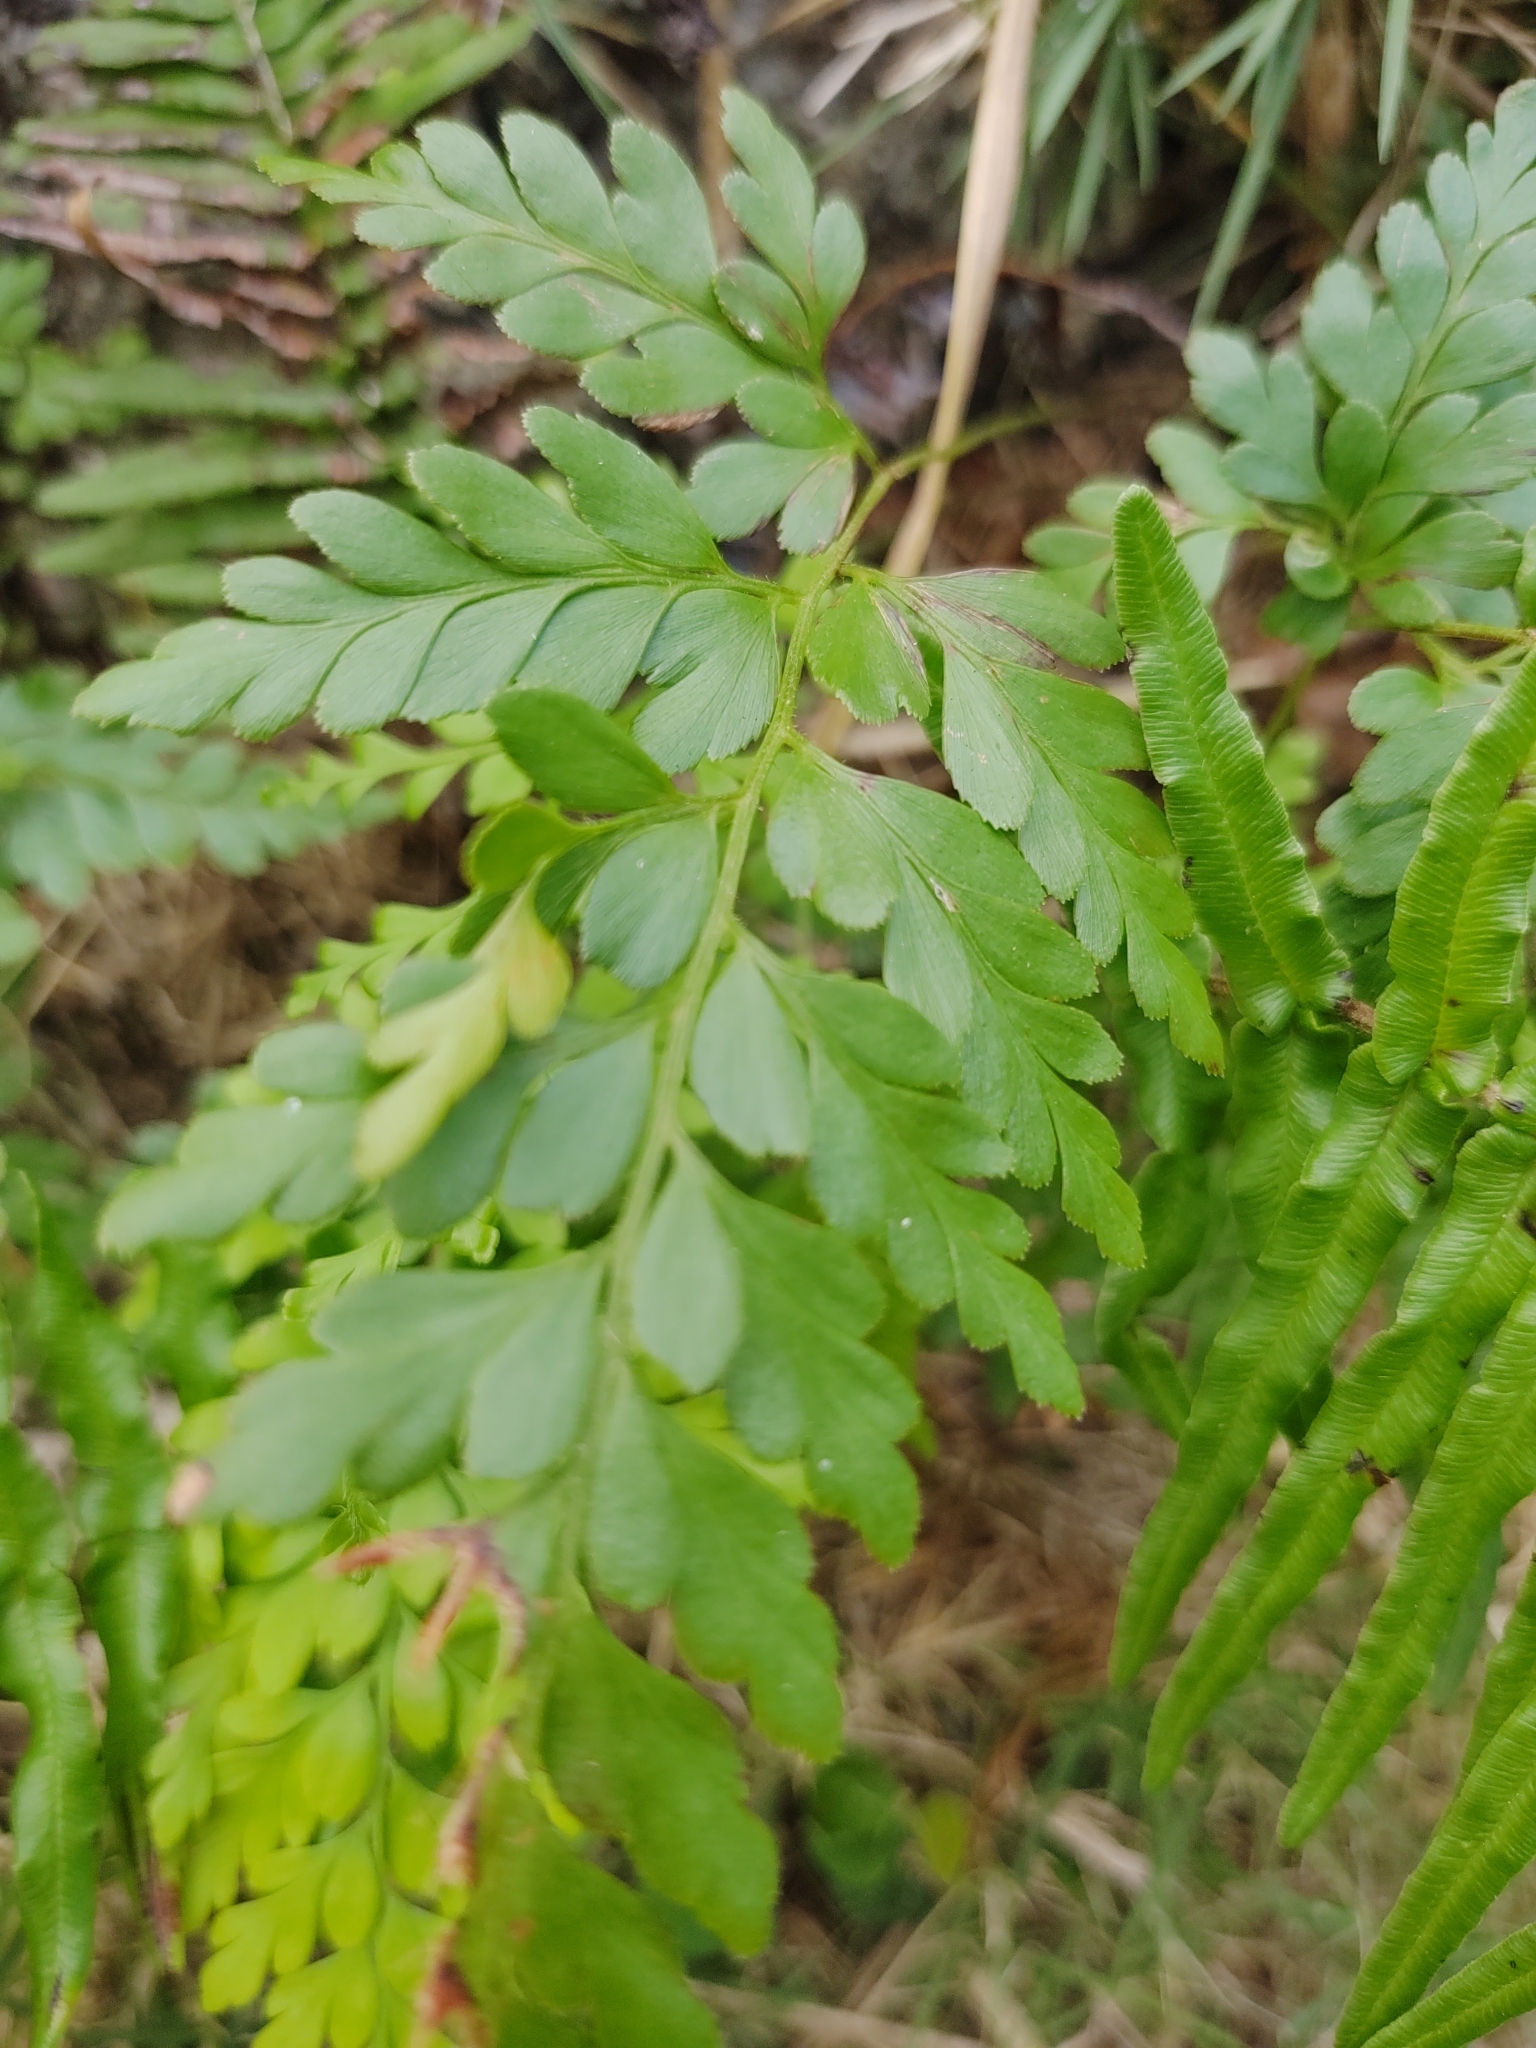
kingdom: Plantae
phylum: Tracheophyta
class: Polypodiopsida
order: Schizaeales
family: Anemiaceae
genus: Anemia
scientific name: Anemia adiantifolia
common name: Pine fern
